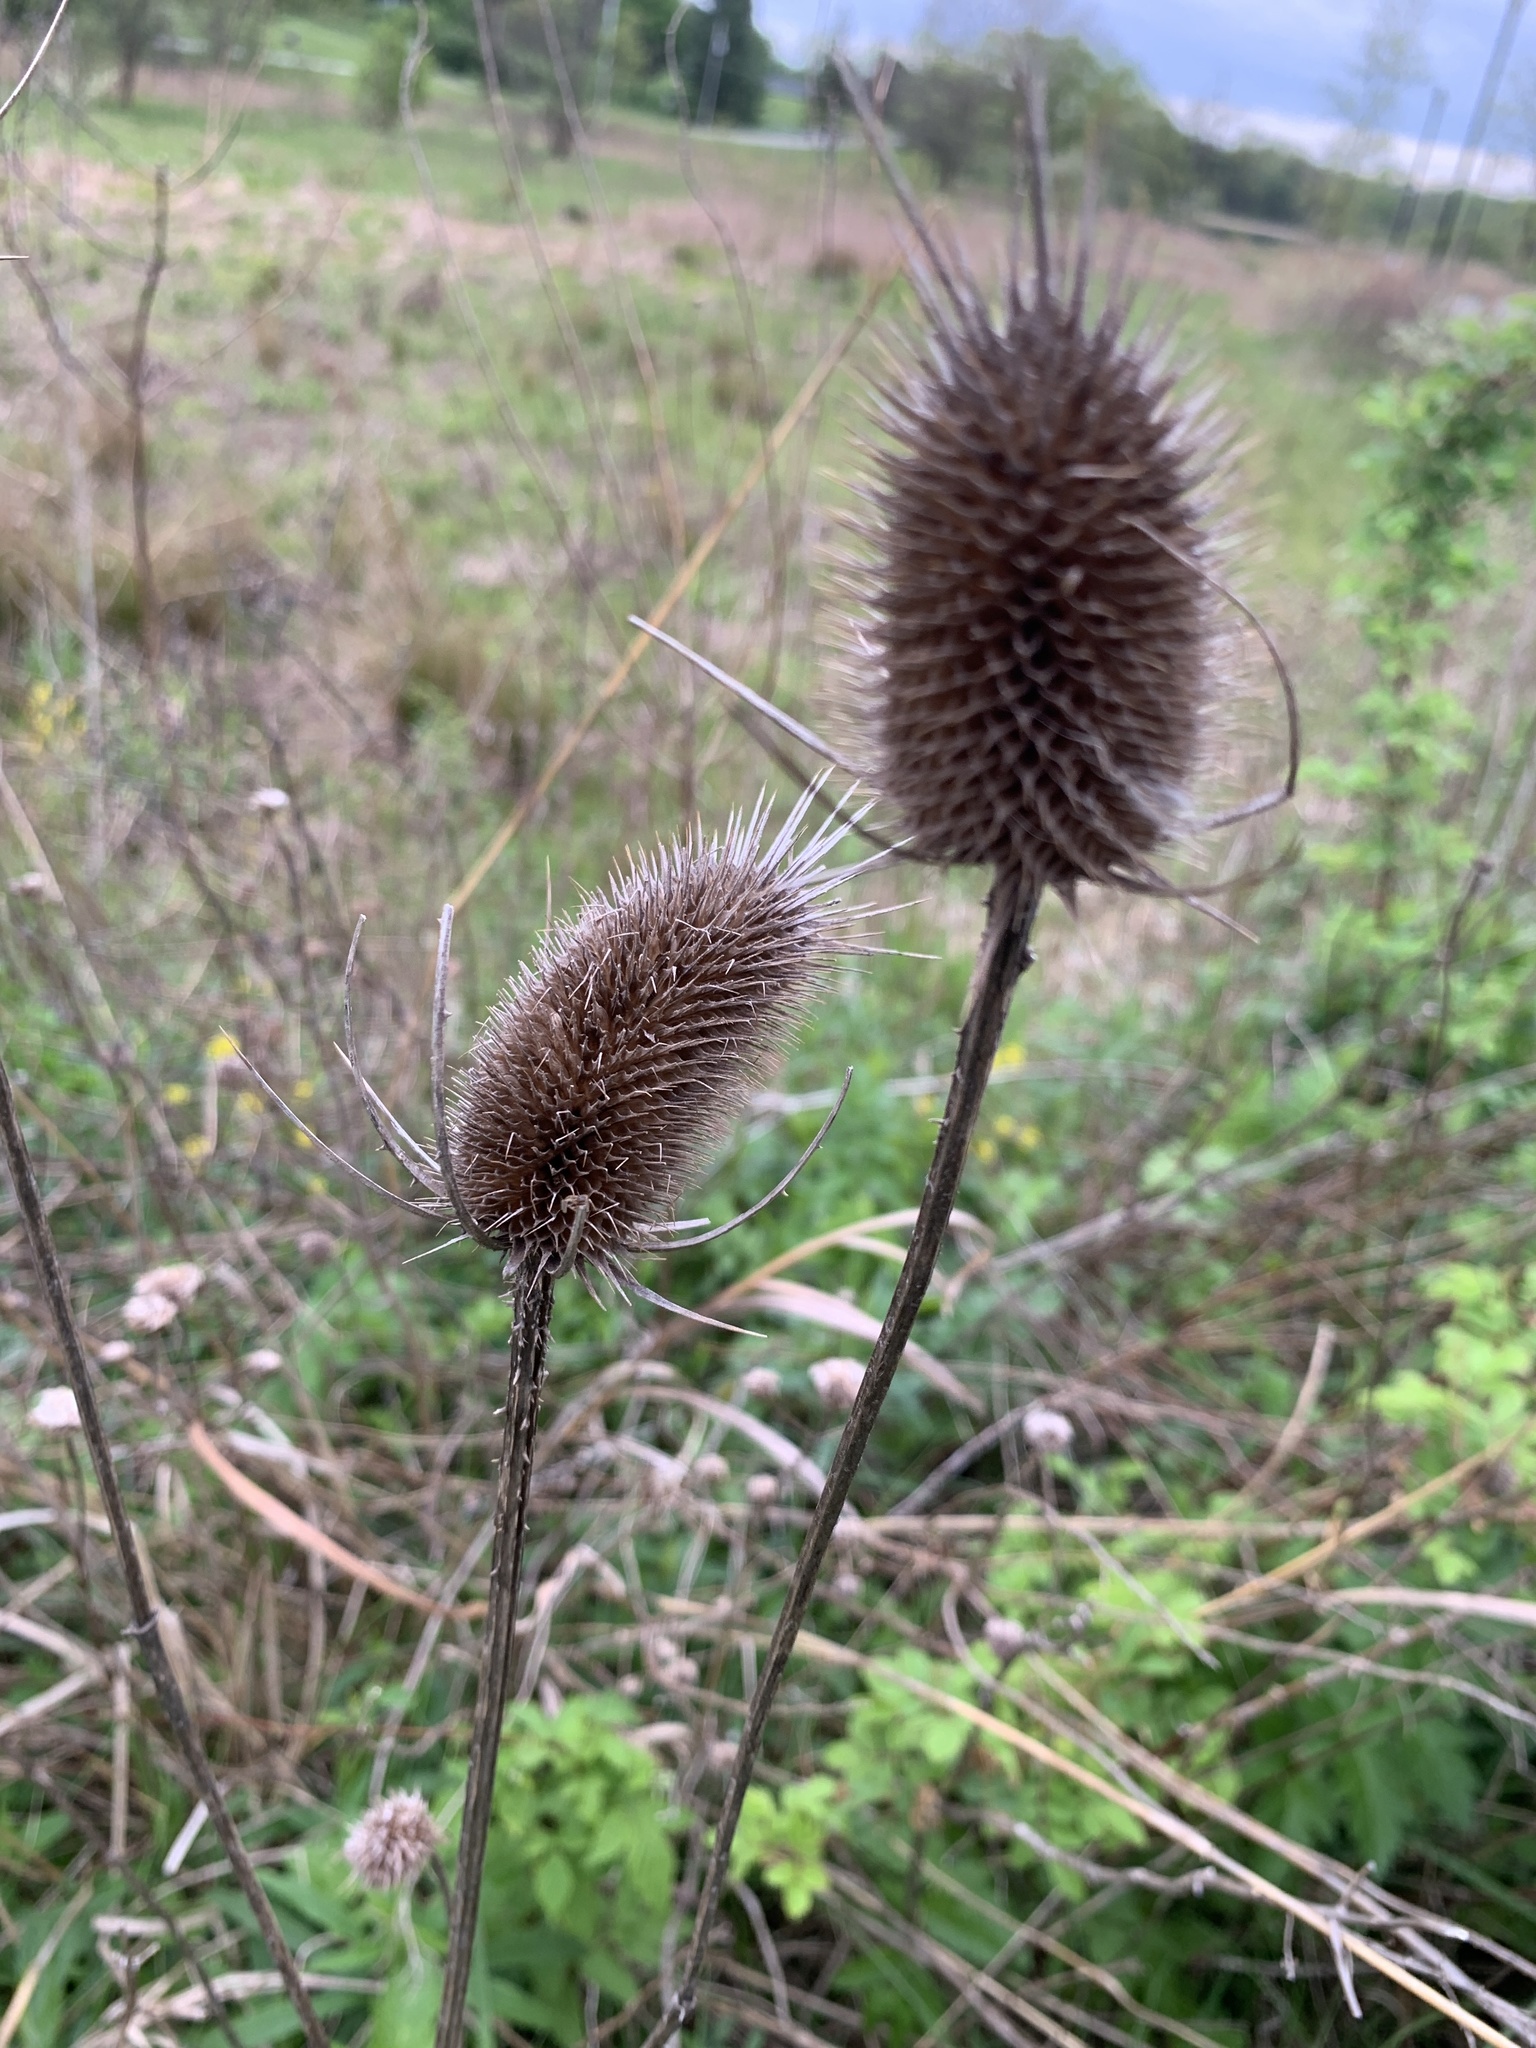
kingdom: Plantae
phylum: Tracheophyta
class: Magnoliopsida
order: Dipsacales
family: Caprifoliaceae
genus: Dipsacus
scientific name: Dipsacus fullonum
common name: Teasel
